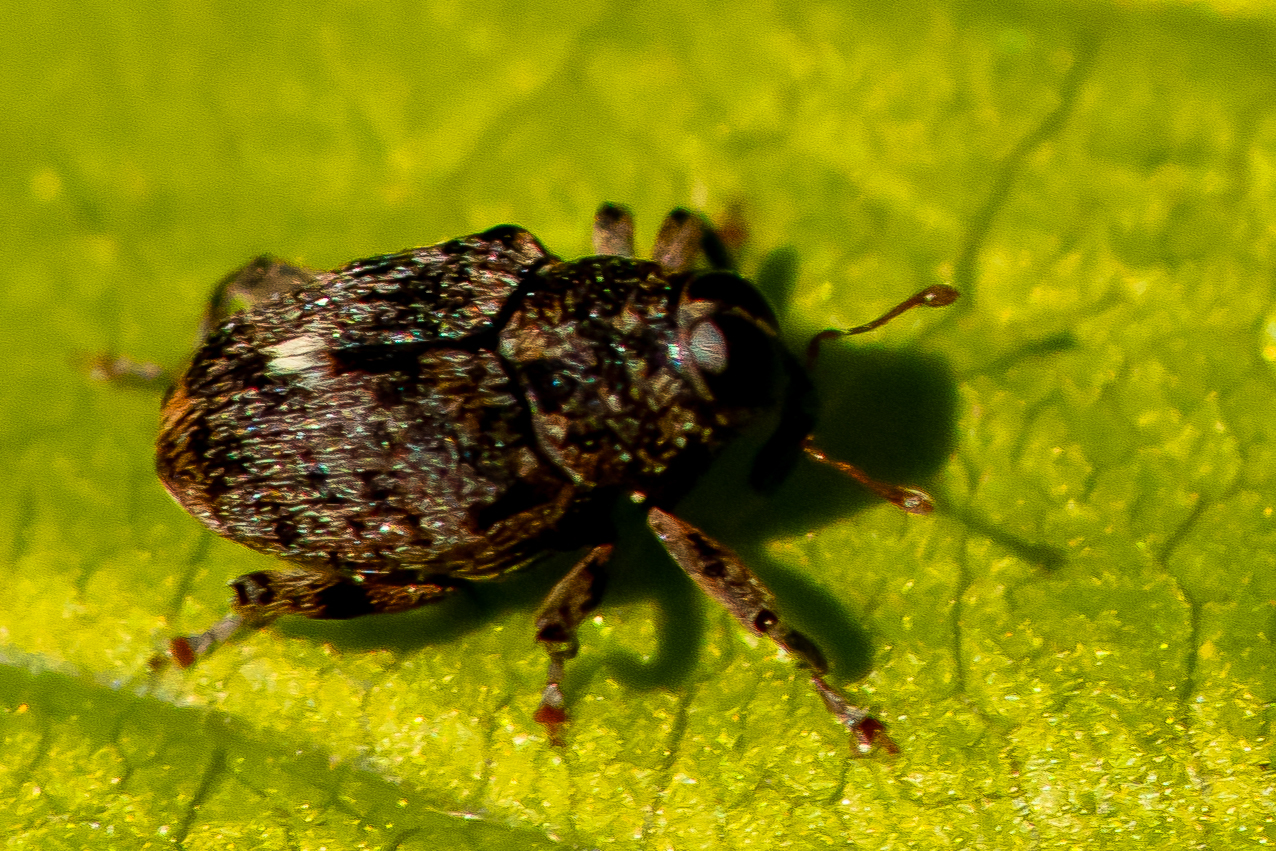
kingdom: Animalia
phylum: Arthropoda
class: Insecta
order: Coleoptera
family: Curculionidae
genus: Lechriops
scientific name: Lechriops oculatus
